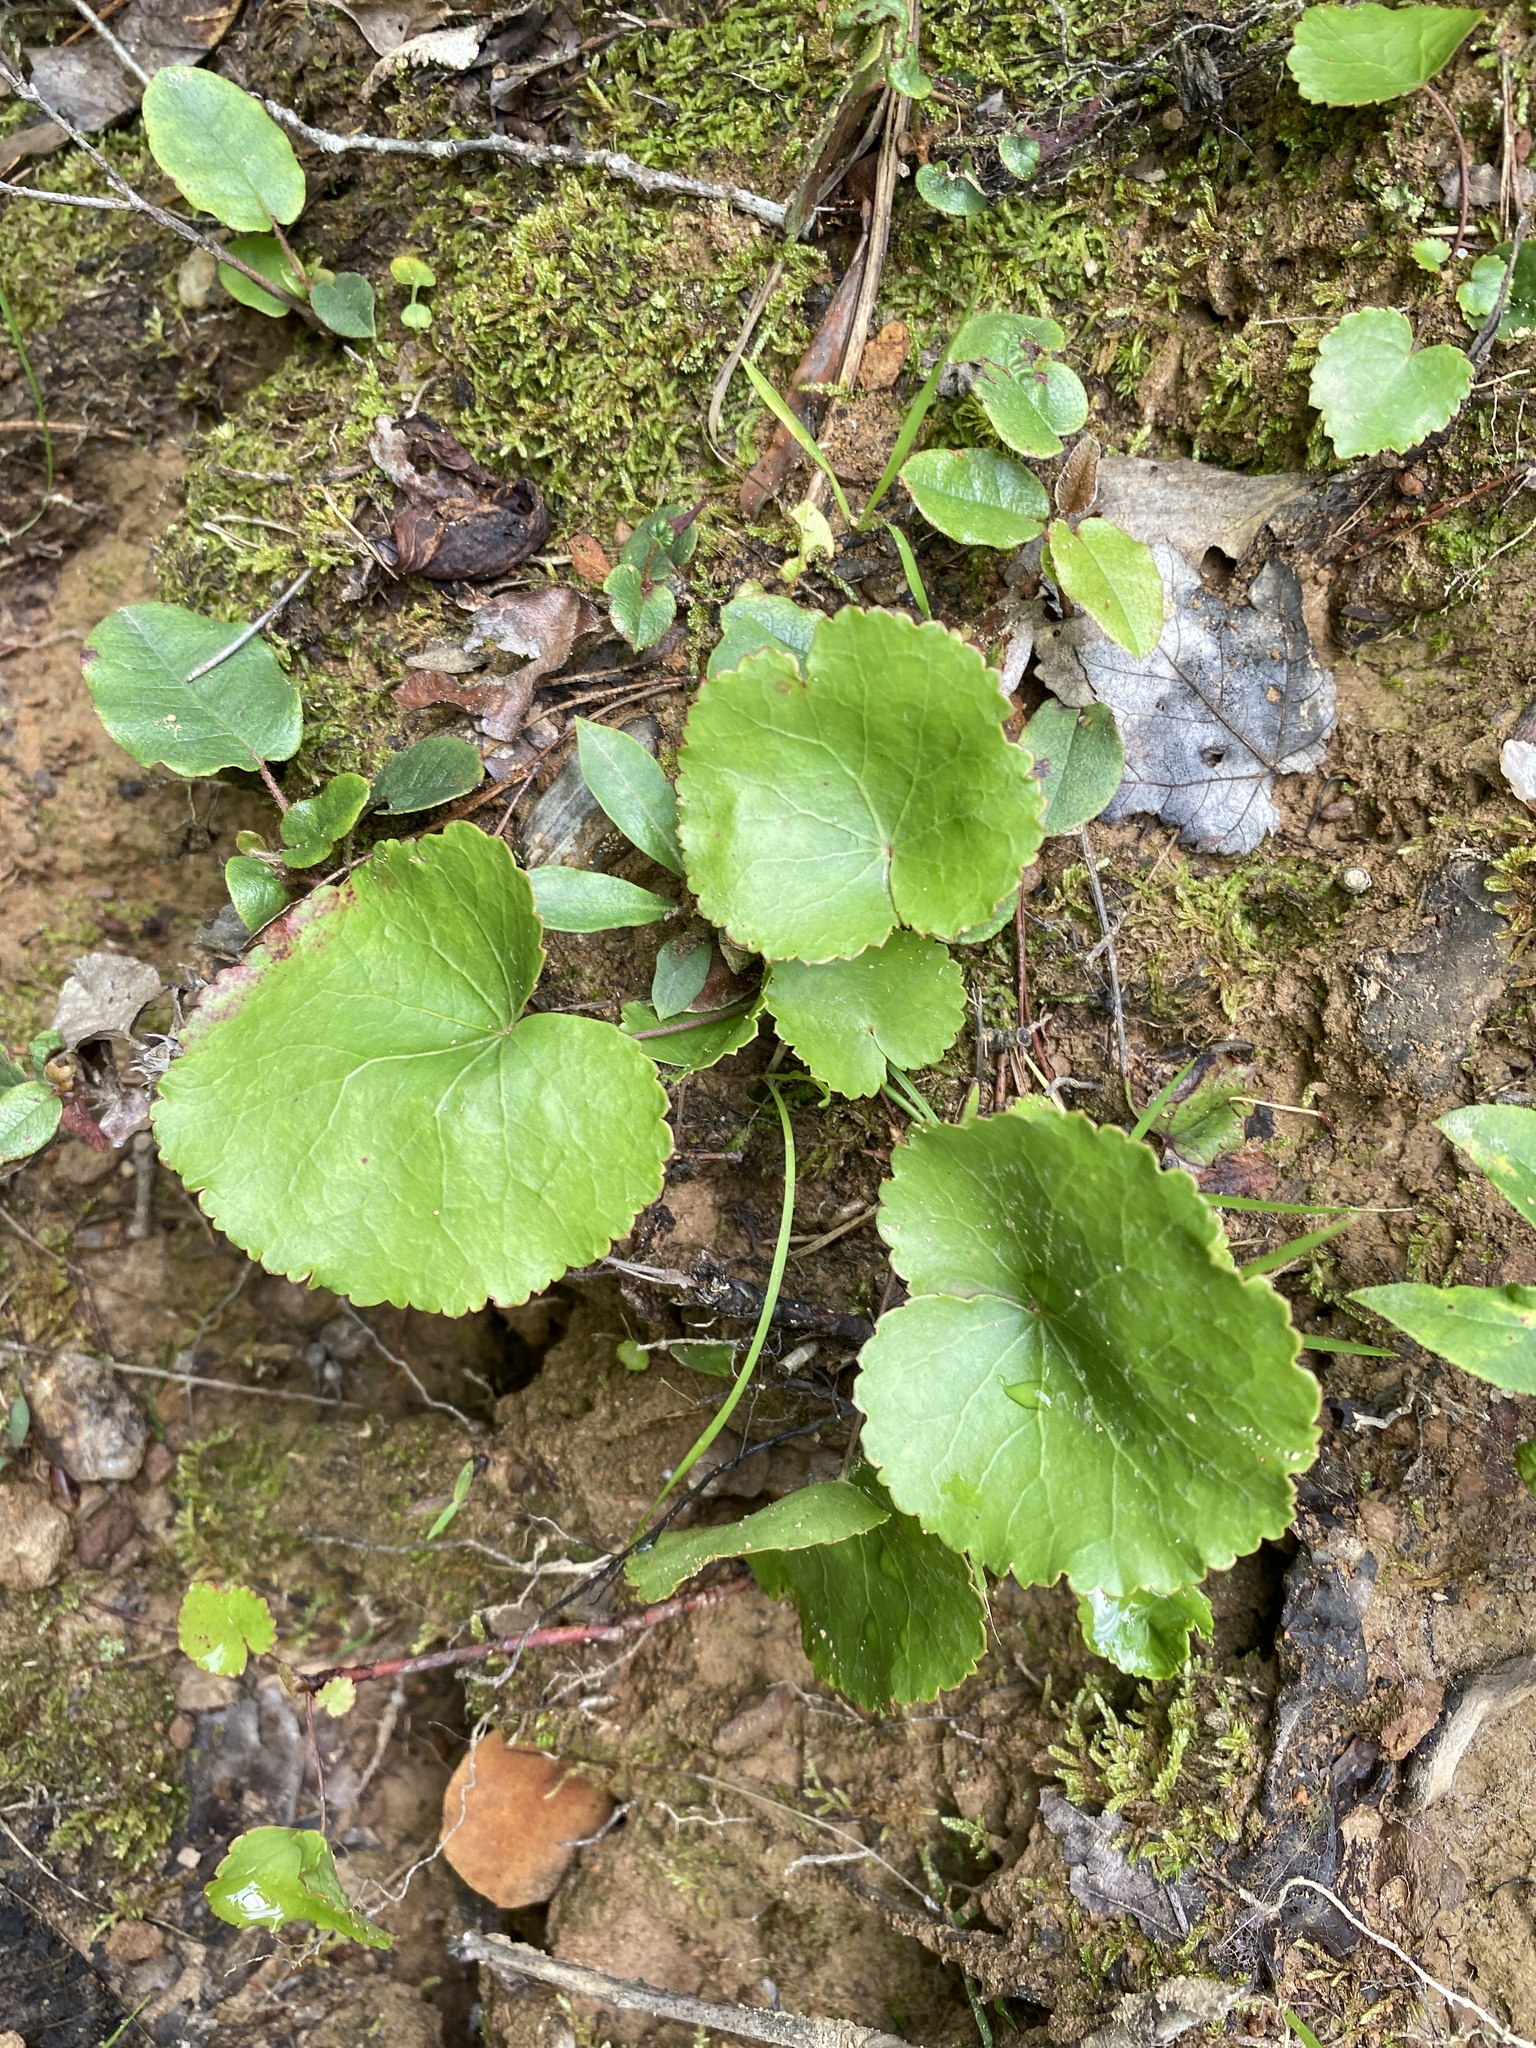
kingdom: Plantae
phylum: Tracheophyta
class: Magnoliopsida
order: Ericales
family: Diapensiaceae
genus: Galax
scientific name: Galax urceolata
